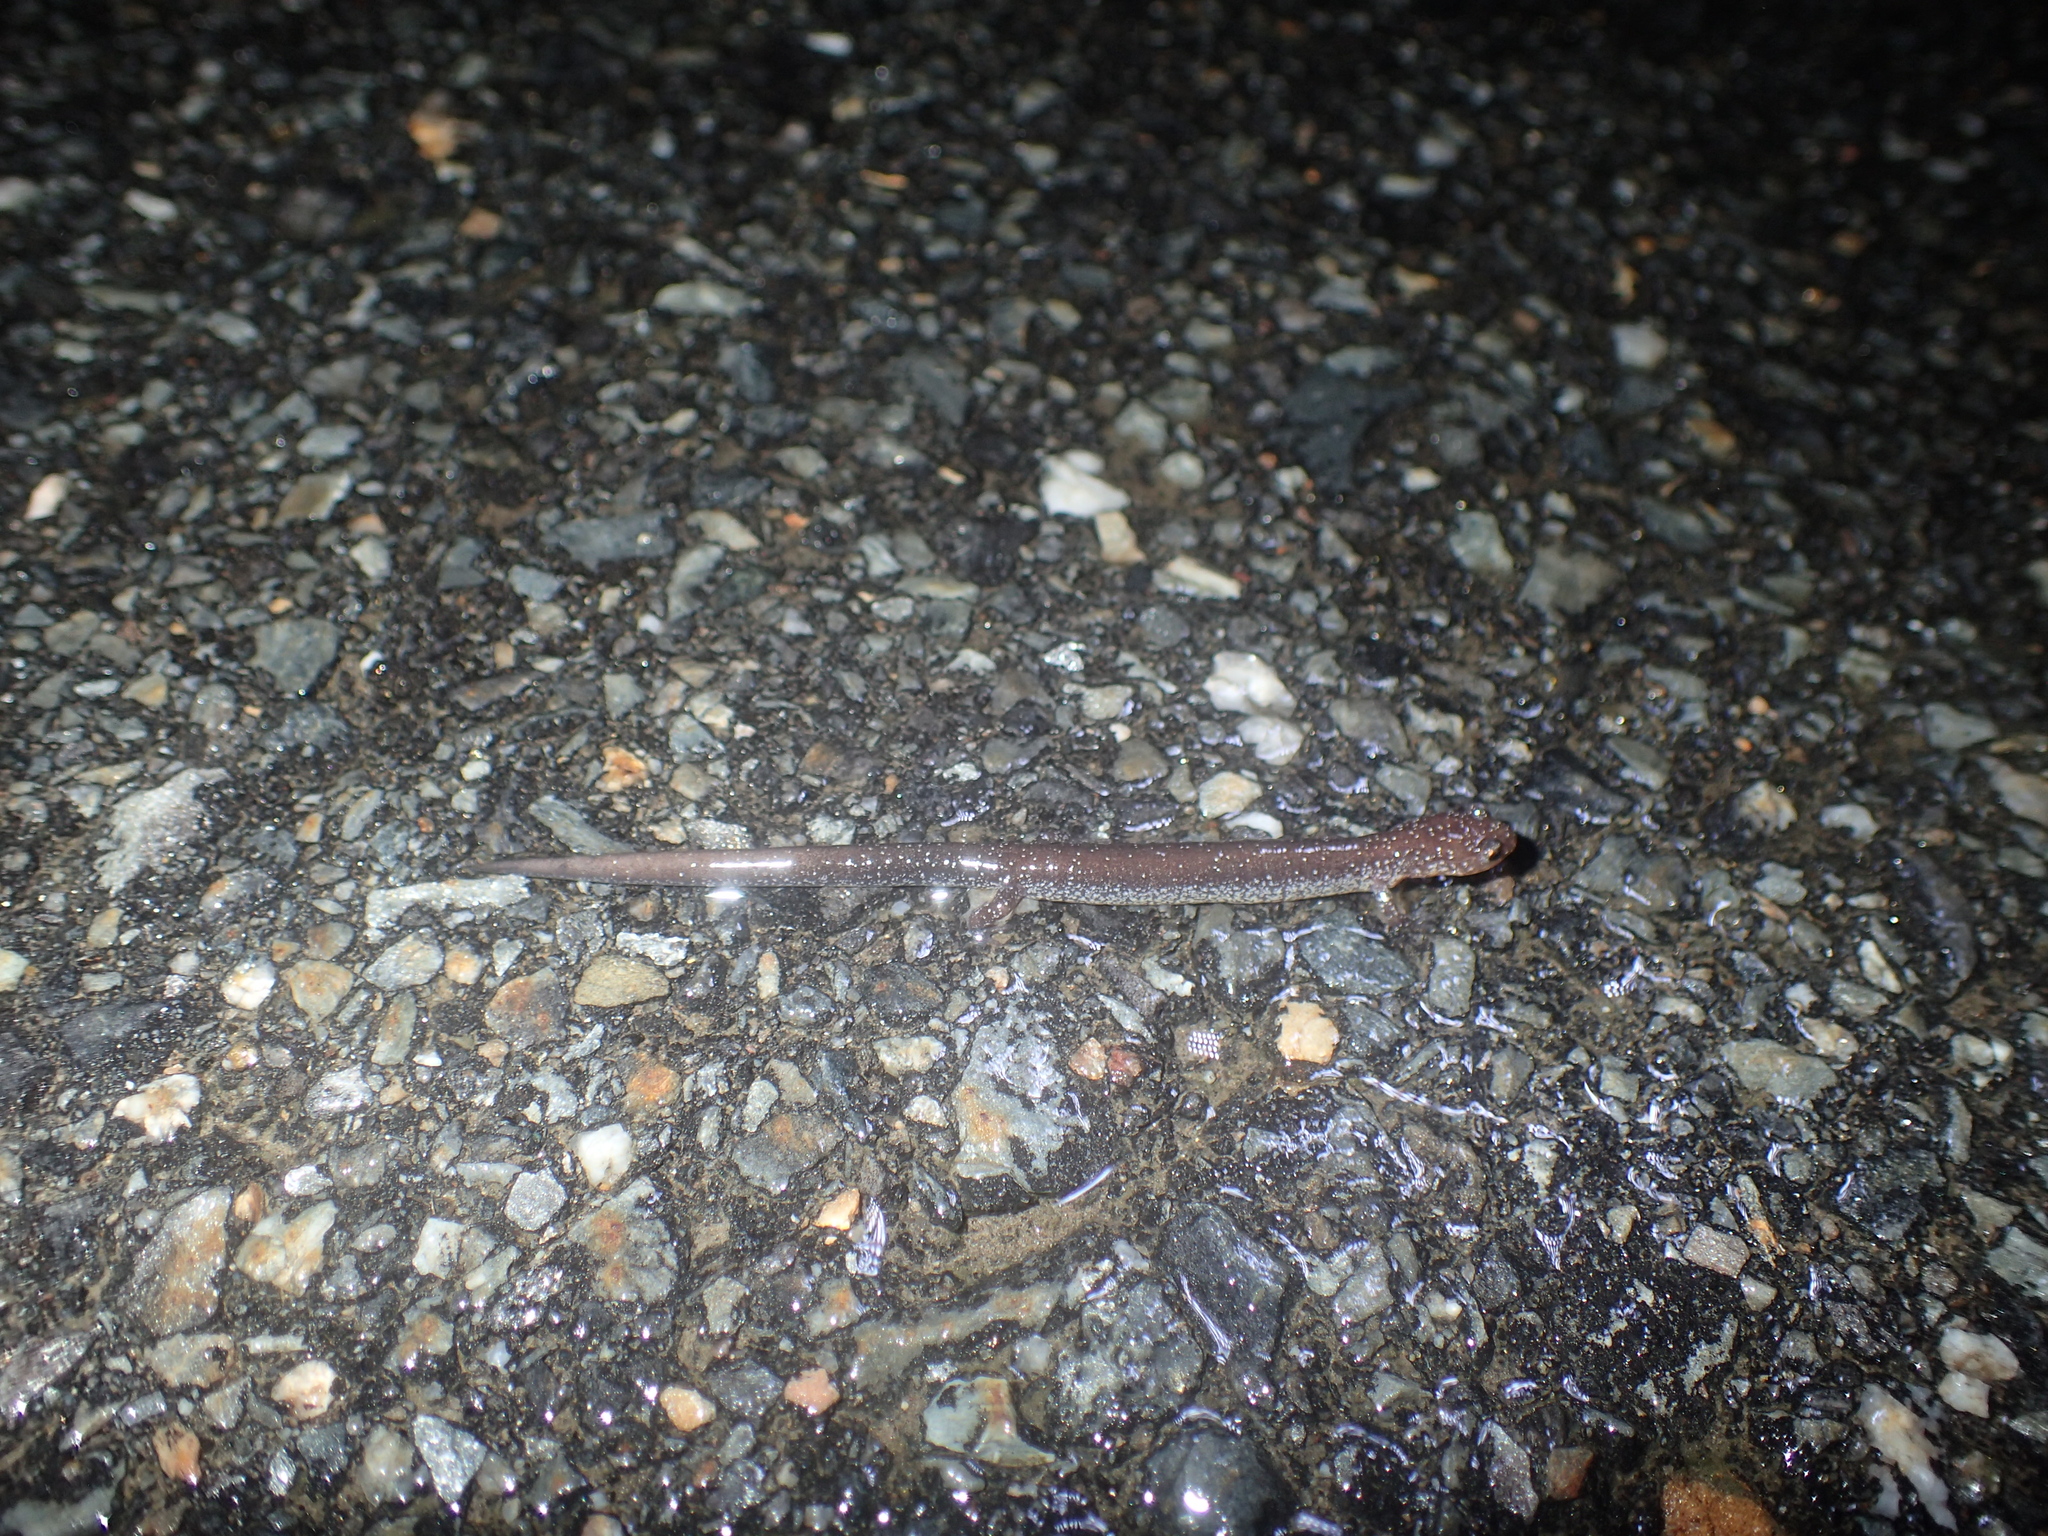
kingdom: Animalia
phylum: Chordata
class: Amphibia
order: Caudata
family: Plethodontidae
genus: Plethodon
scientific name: Plethodon cinereus
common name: Redback salamander
